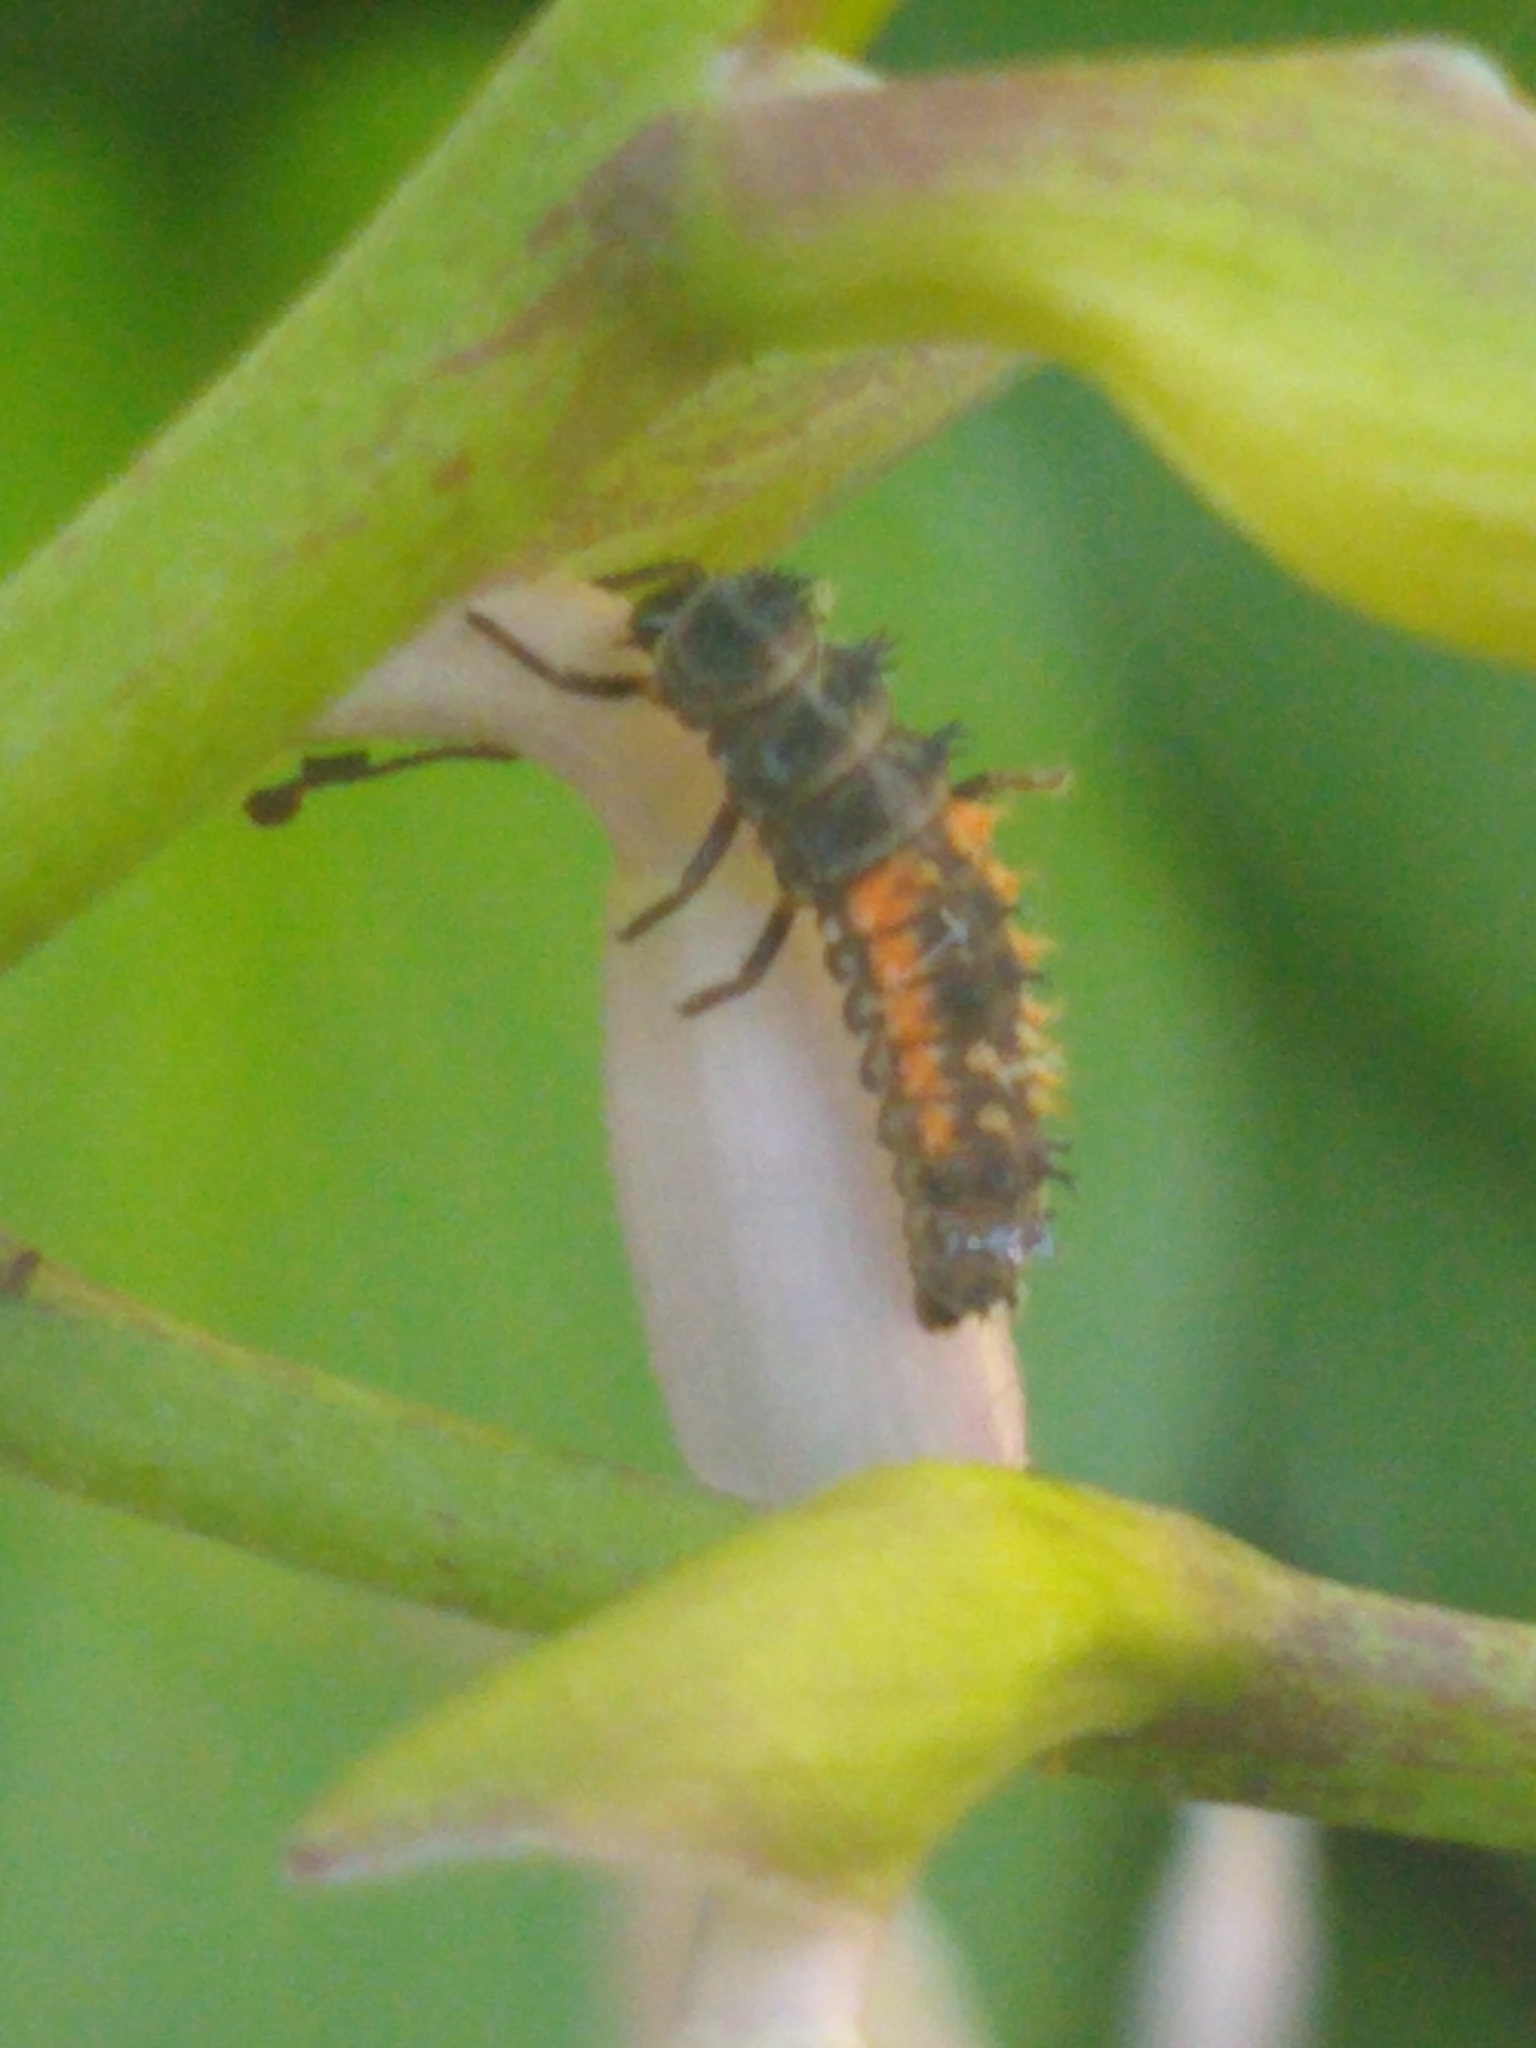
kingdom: Animalia
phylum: Arthropoda
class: Insecta
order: Coleoptera
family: Coccinellidae
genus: Harmonia
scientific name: Harmonia axyridis
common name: Harlequin ladybird
